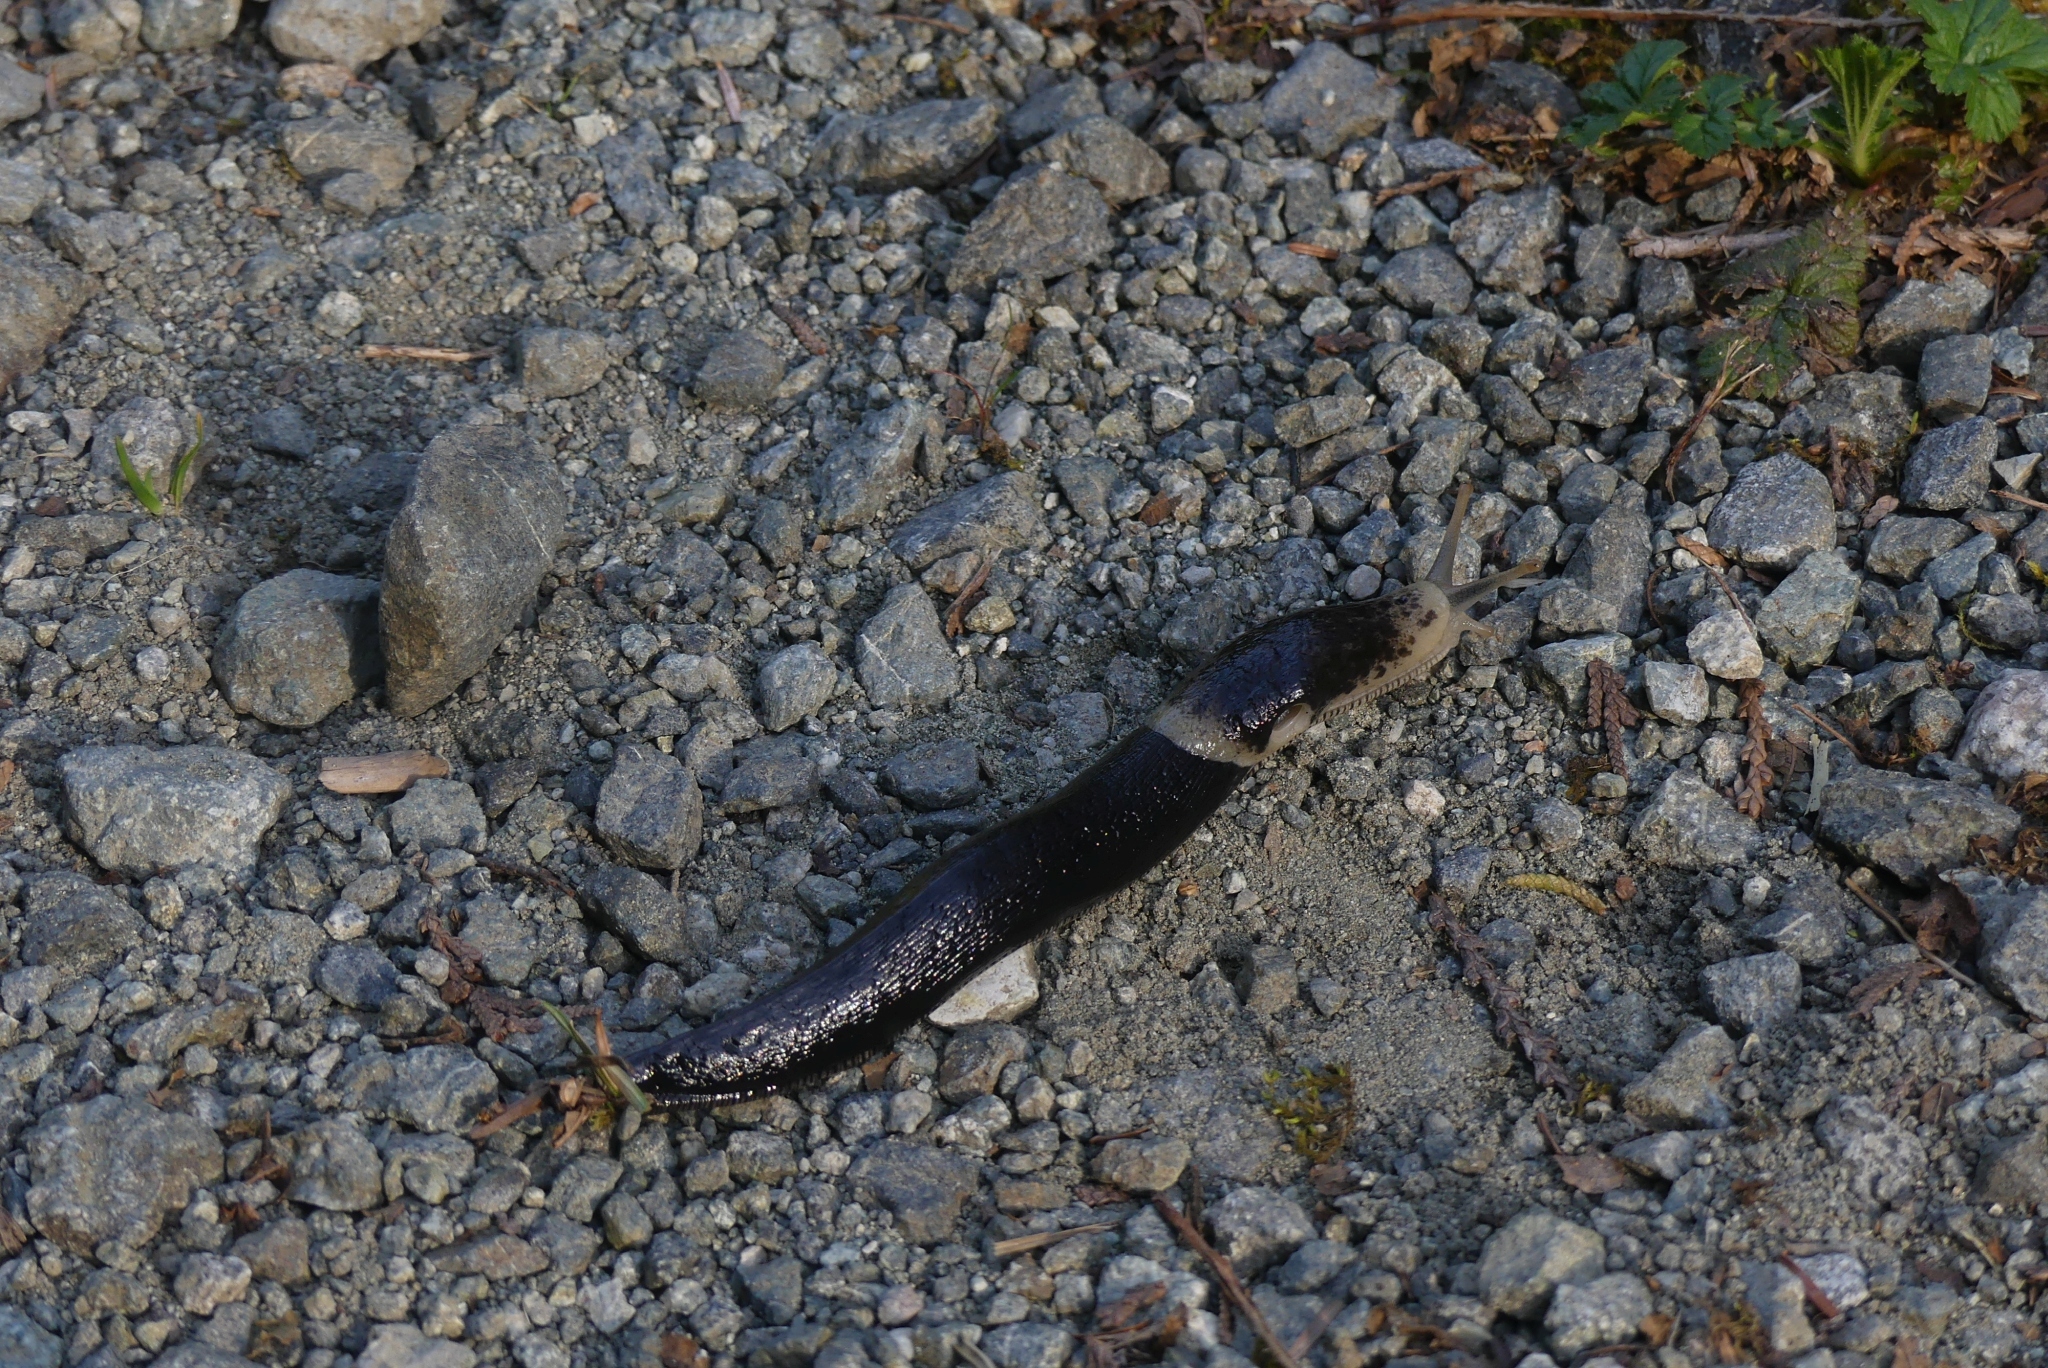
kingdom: Animalia
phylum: Mollusca
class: Gastropoda
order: Stylommatophora
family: Ariolimacidae
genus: Ariolimax
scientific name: Ariolimax columbianus
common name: Pacific banana slug
